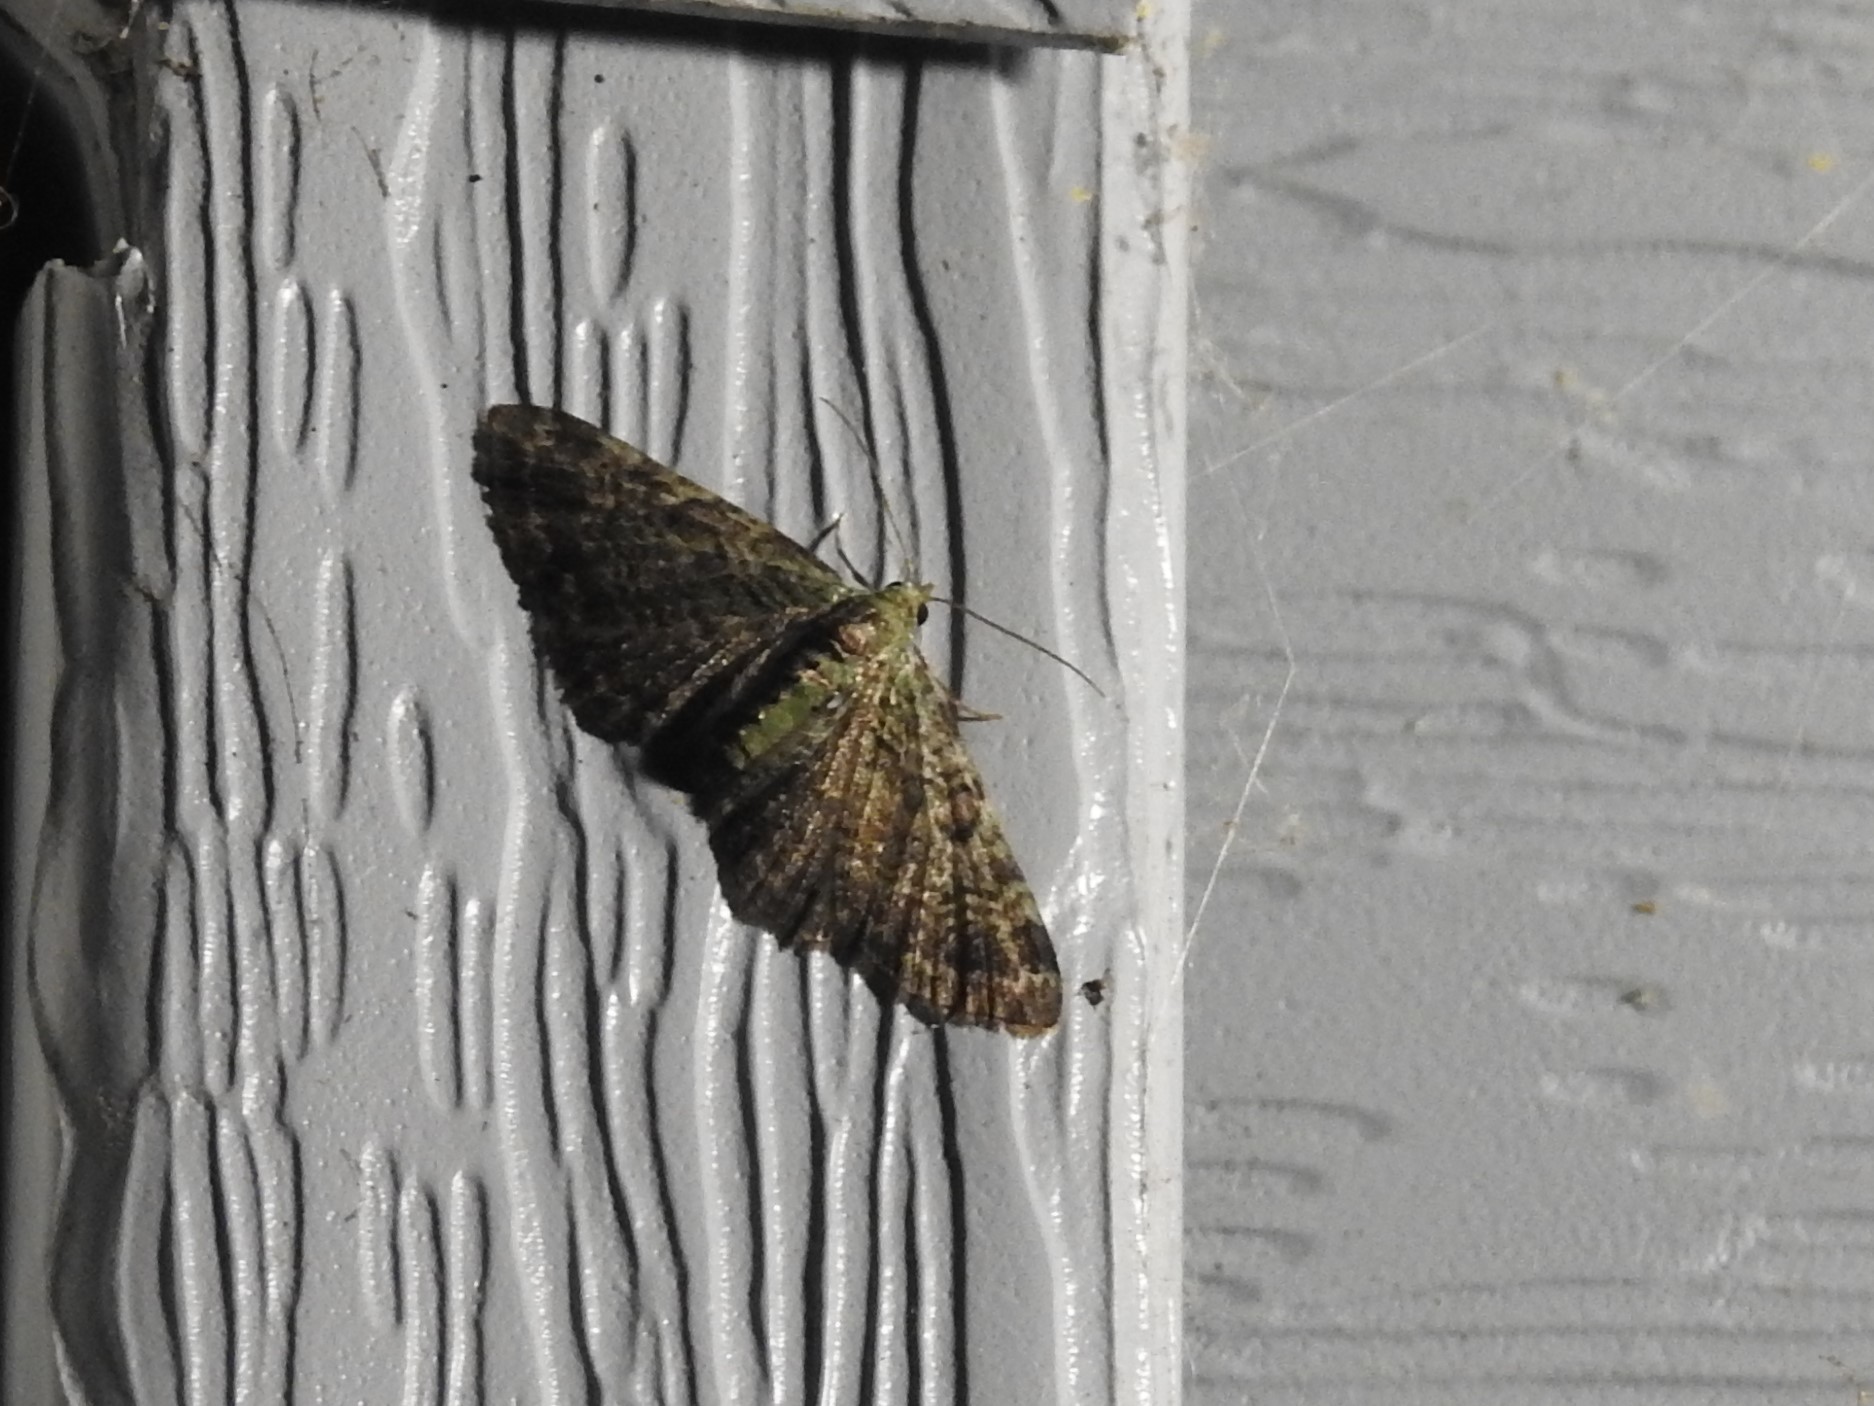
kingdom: Animalia
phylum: Arthropoda
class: Insecta
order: Lepidoptera
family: Geometridae
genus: Pasiphila
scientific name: Pasiphila rectangulata
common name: Green pug
